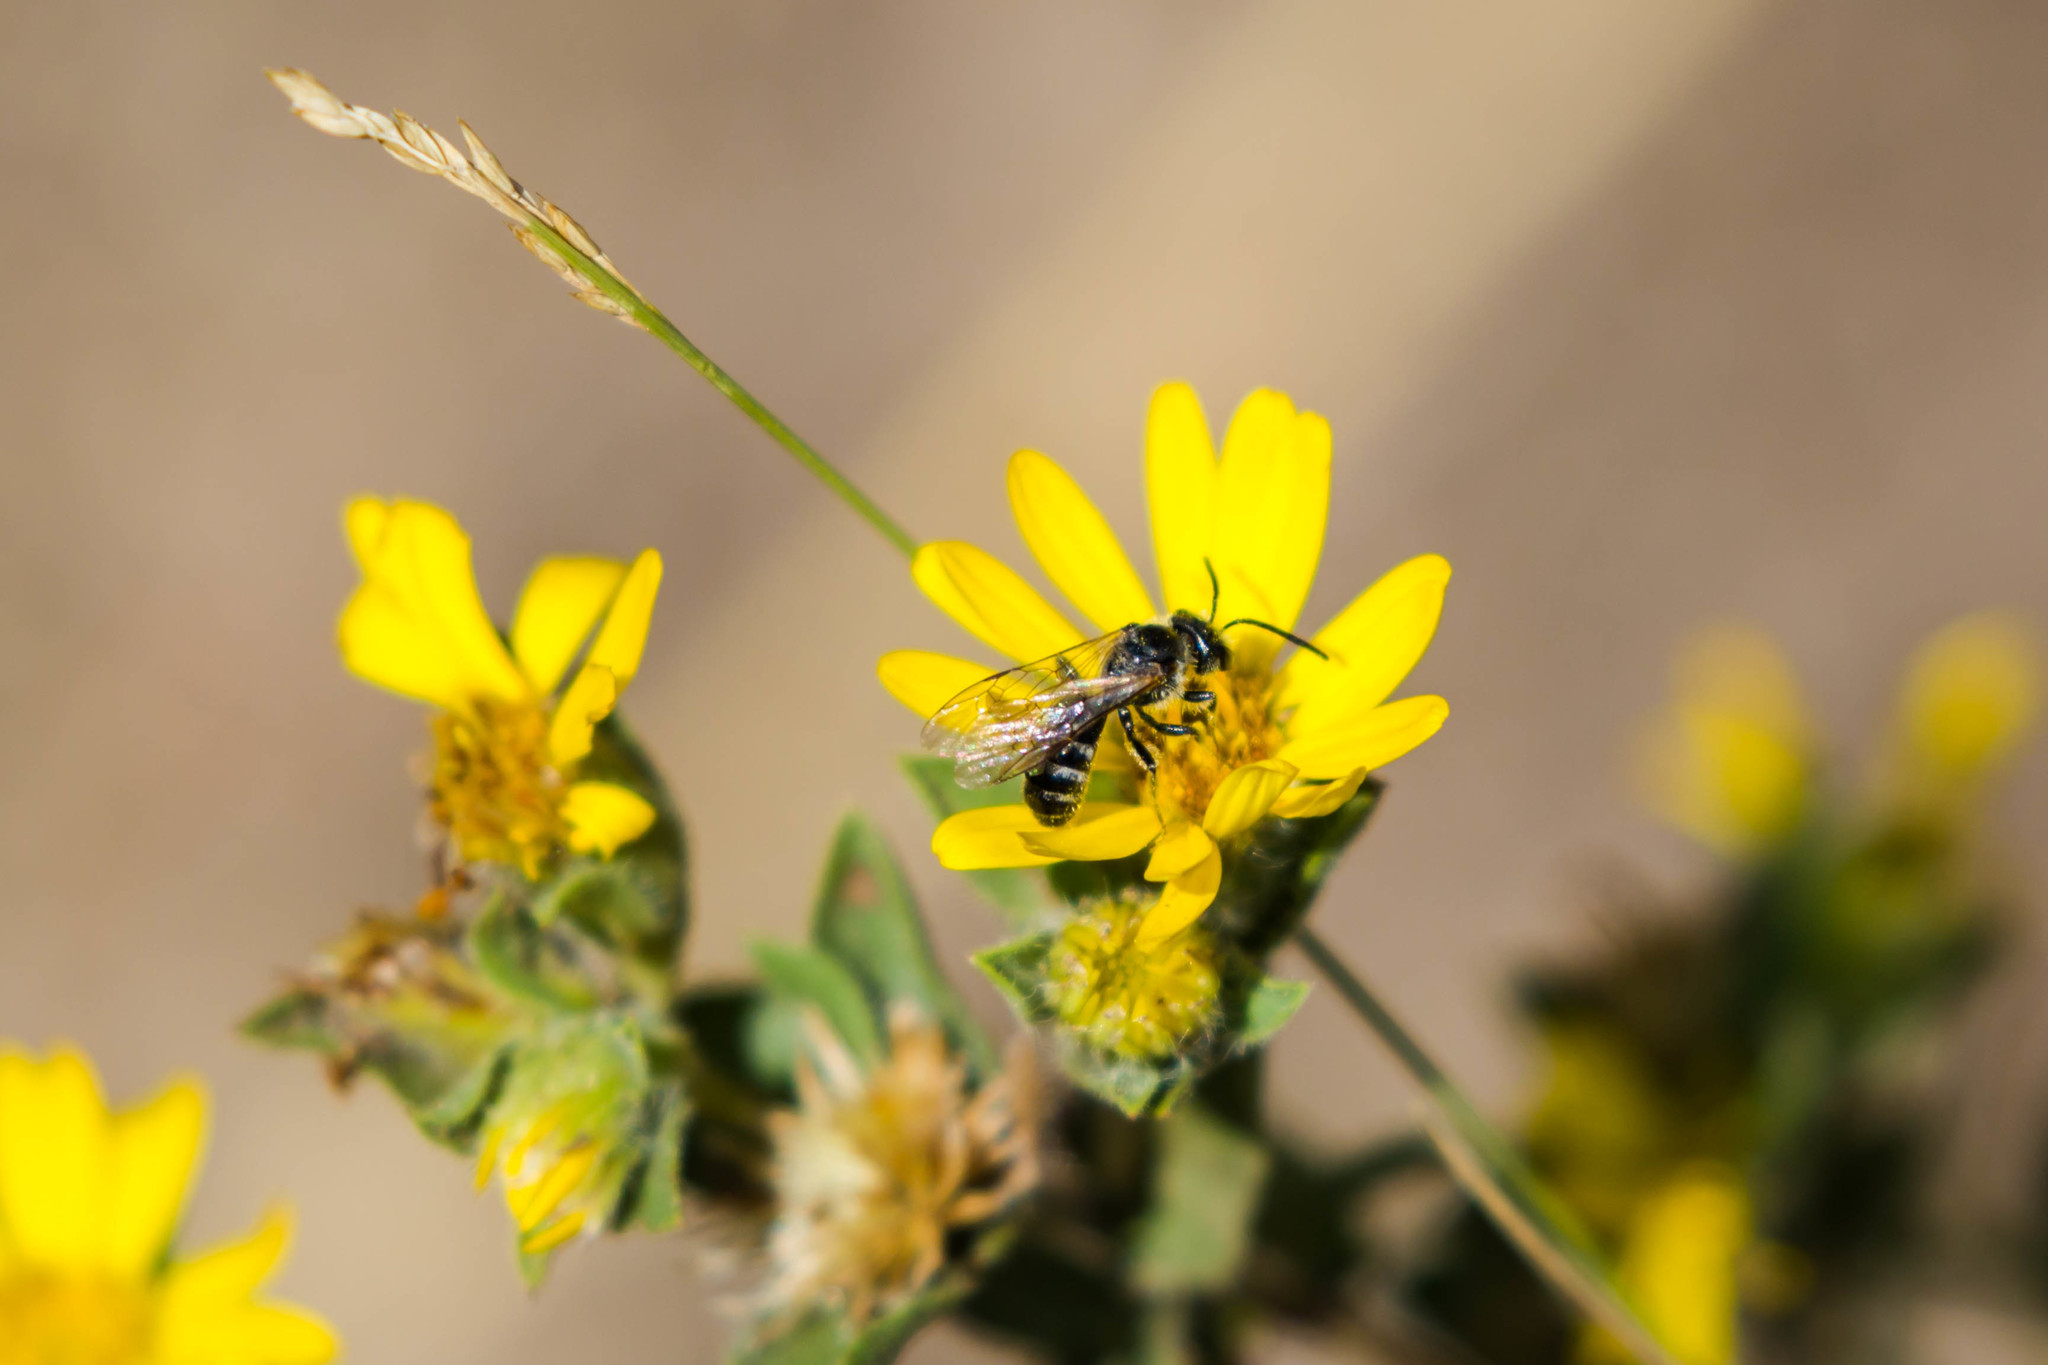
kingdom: Animalia
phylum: Arthropoda
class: Insecta
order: Hymenoptera
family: Halictidae
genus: Lasioglossum
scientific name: Lasioglossum
